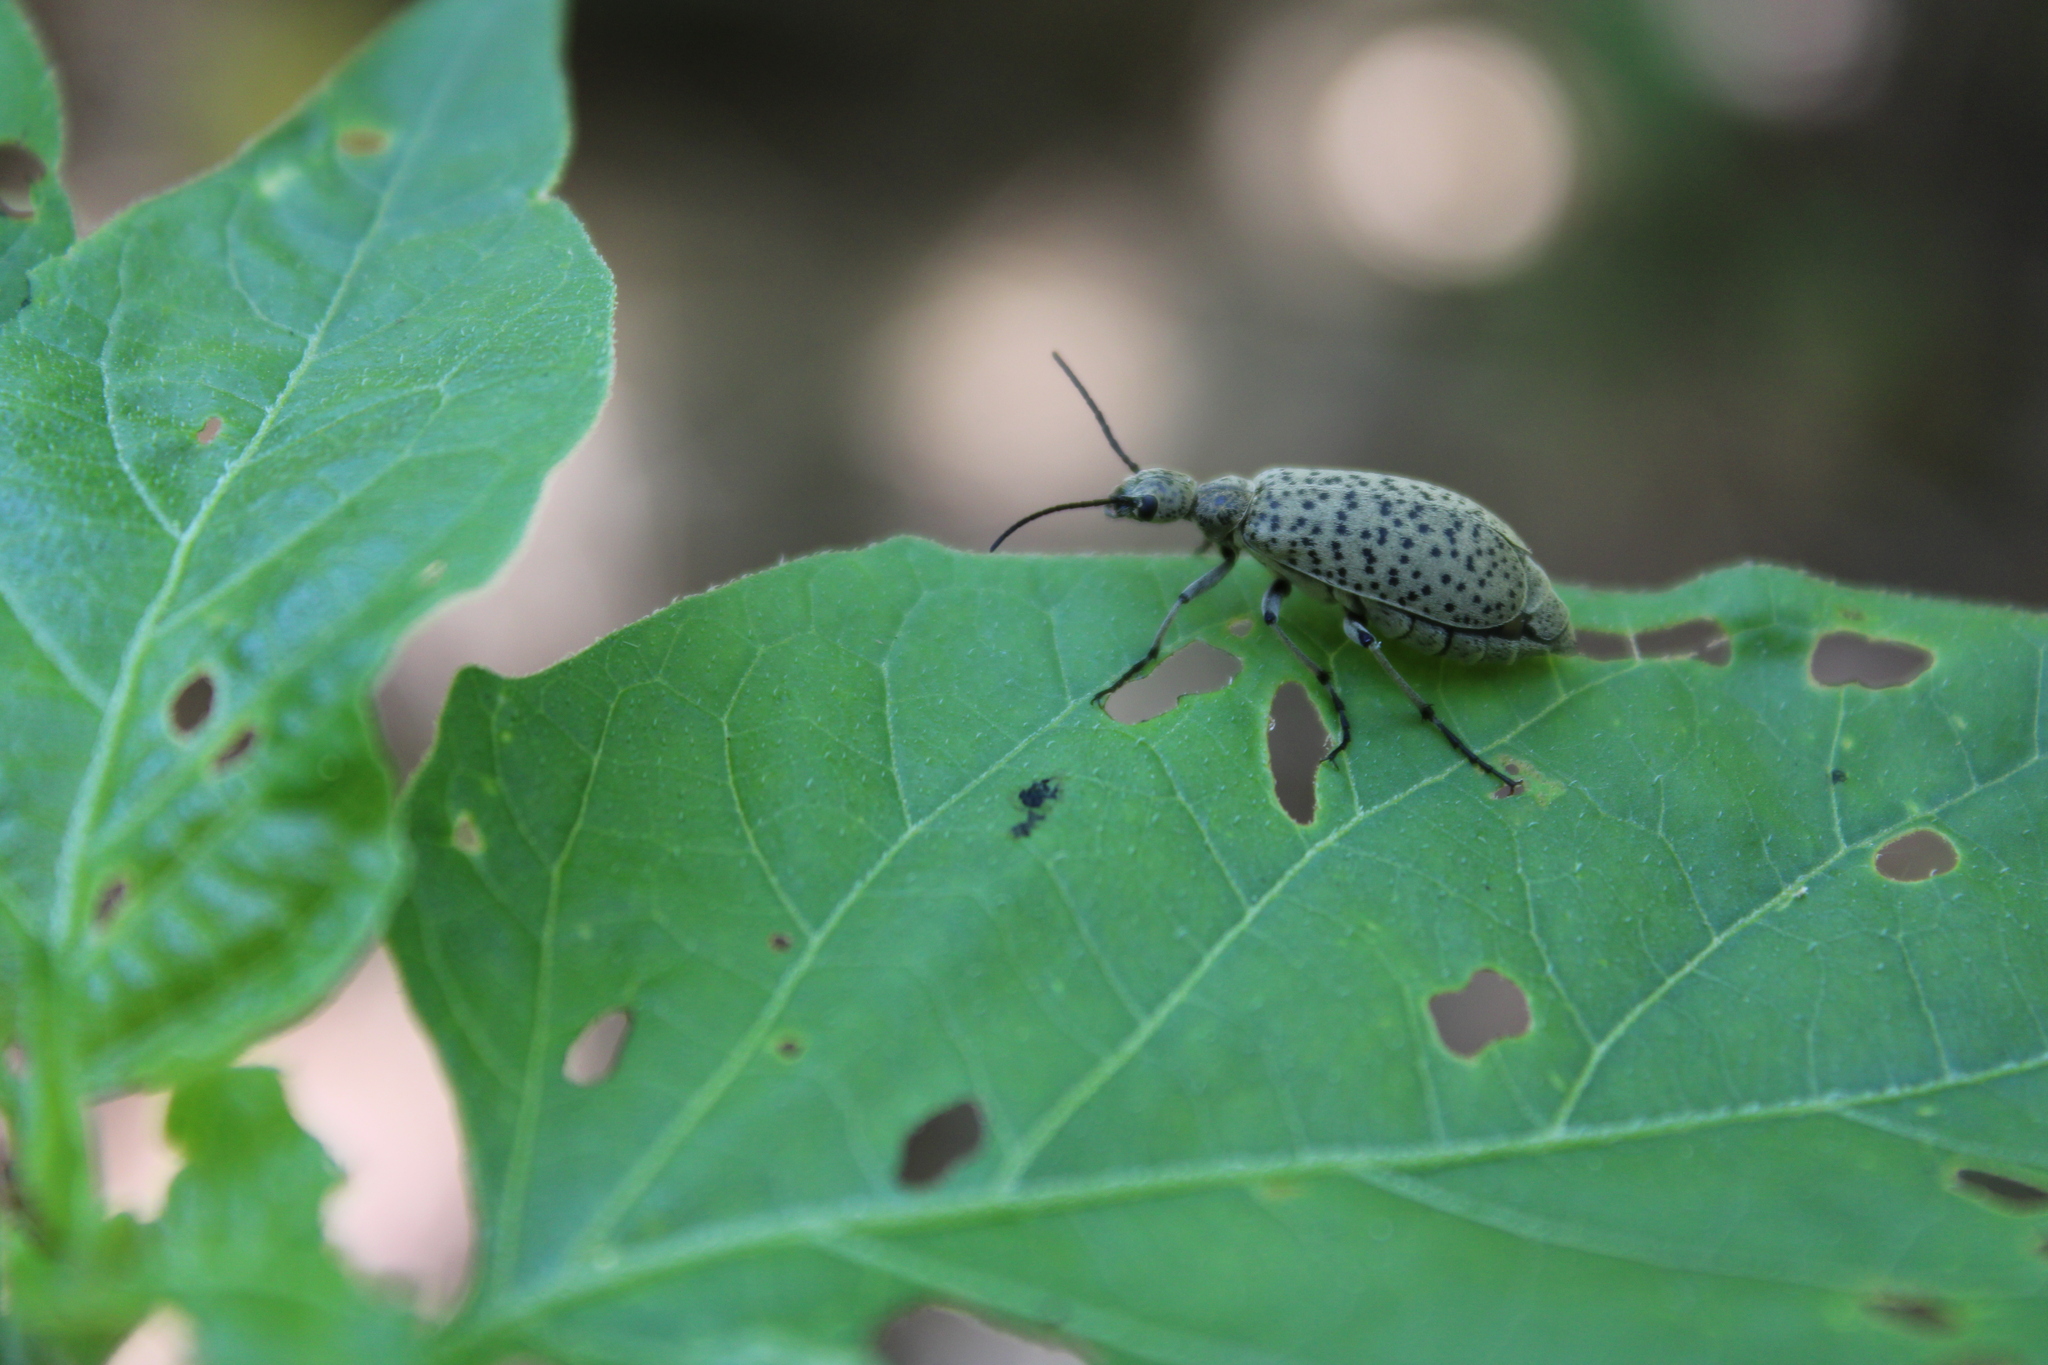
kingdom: Animalia
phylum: Arthropoda
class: Insecta
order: Coleoptera
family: Meloidae
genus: Epicauta
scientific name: Epicauta
